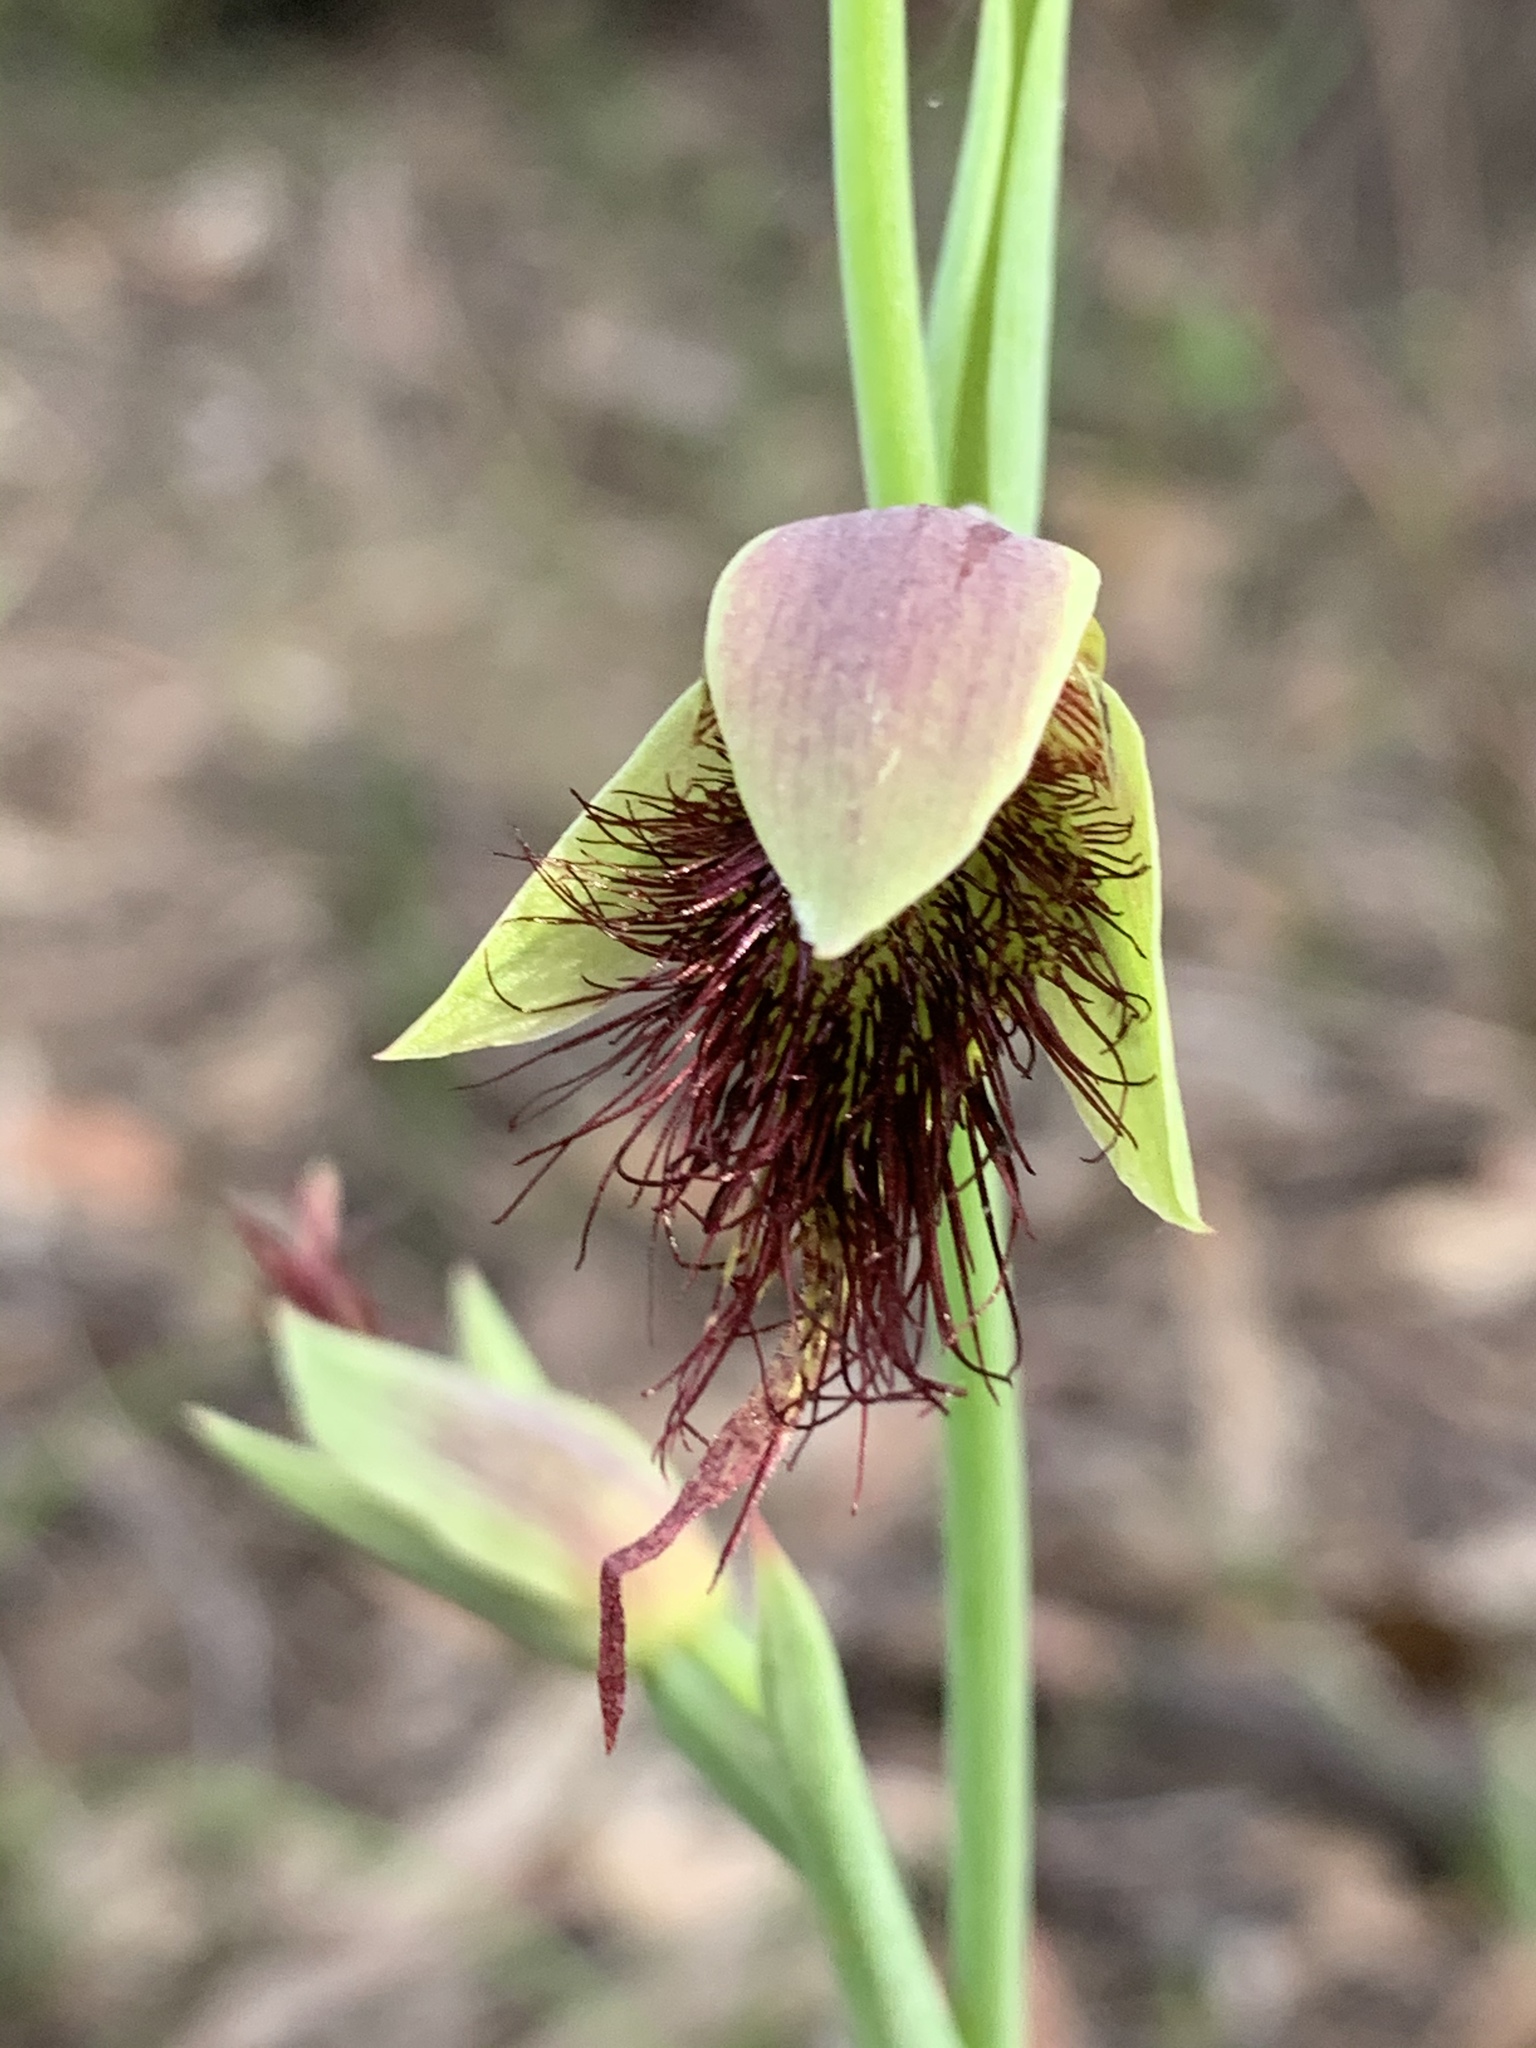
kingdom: Plantae
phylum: Tracheophyta
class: Liliopsida
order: Asparagales
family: Orchidaceae
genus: Calochilus
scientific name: Calochilus paludosus
